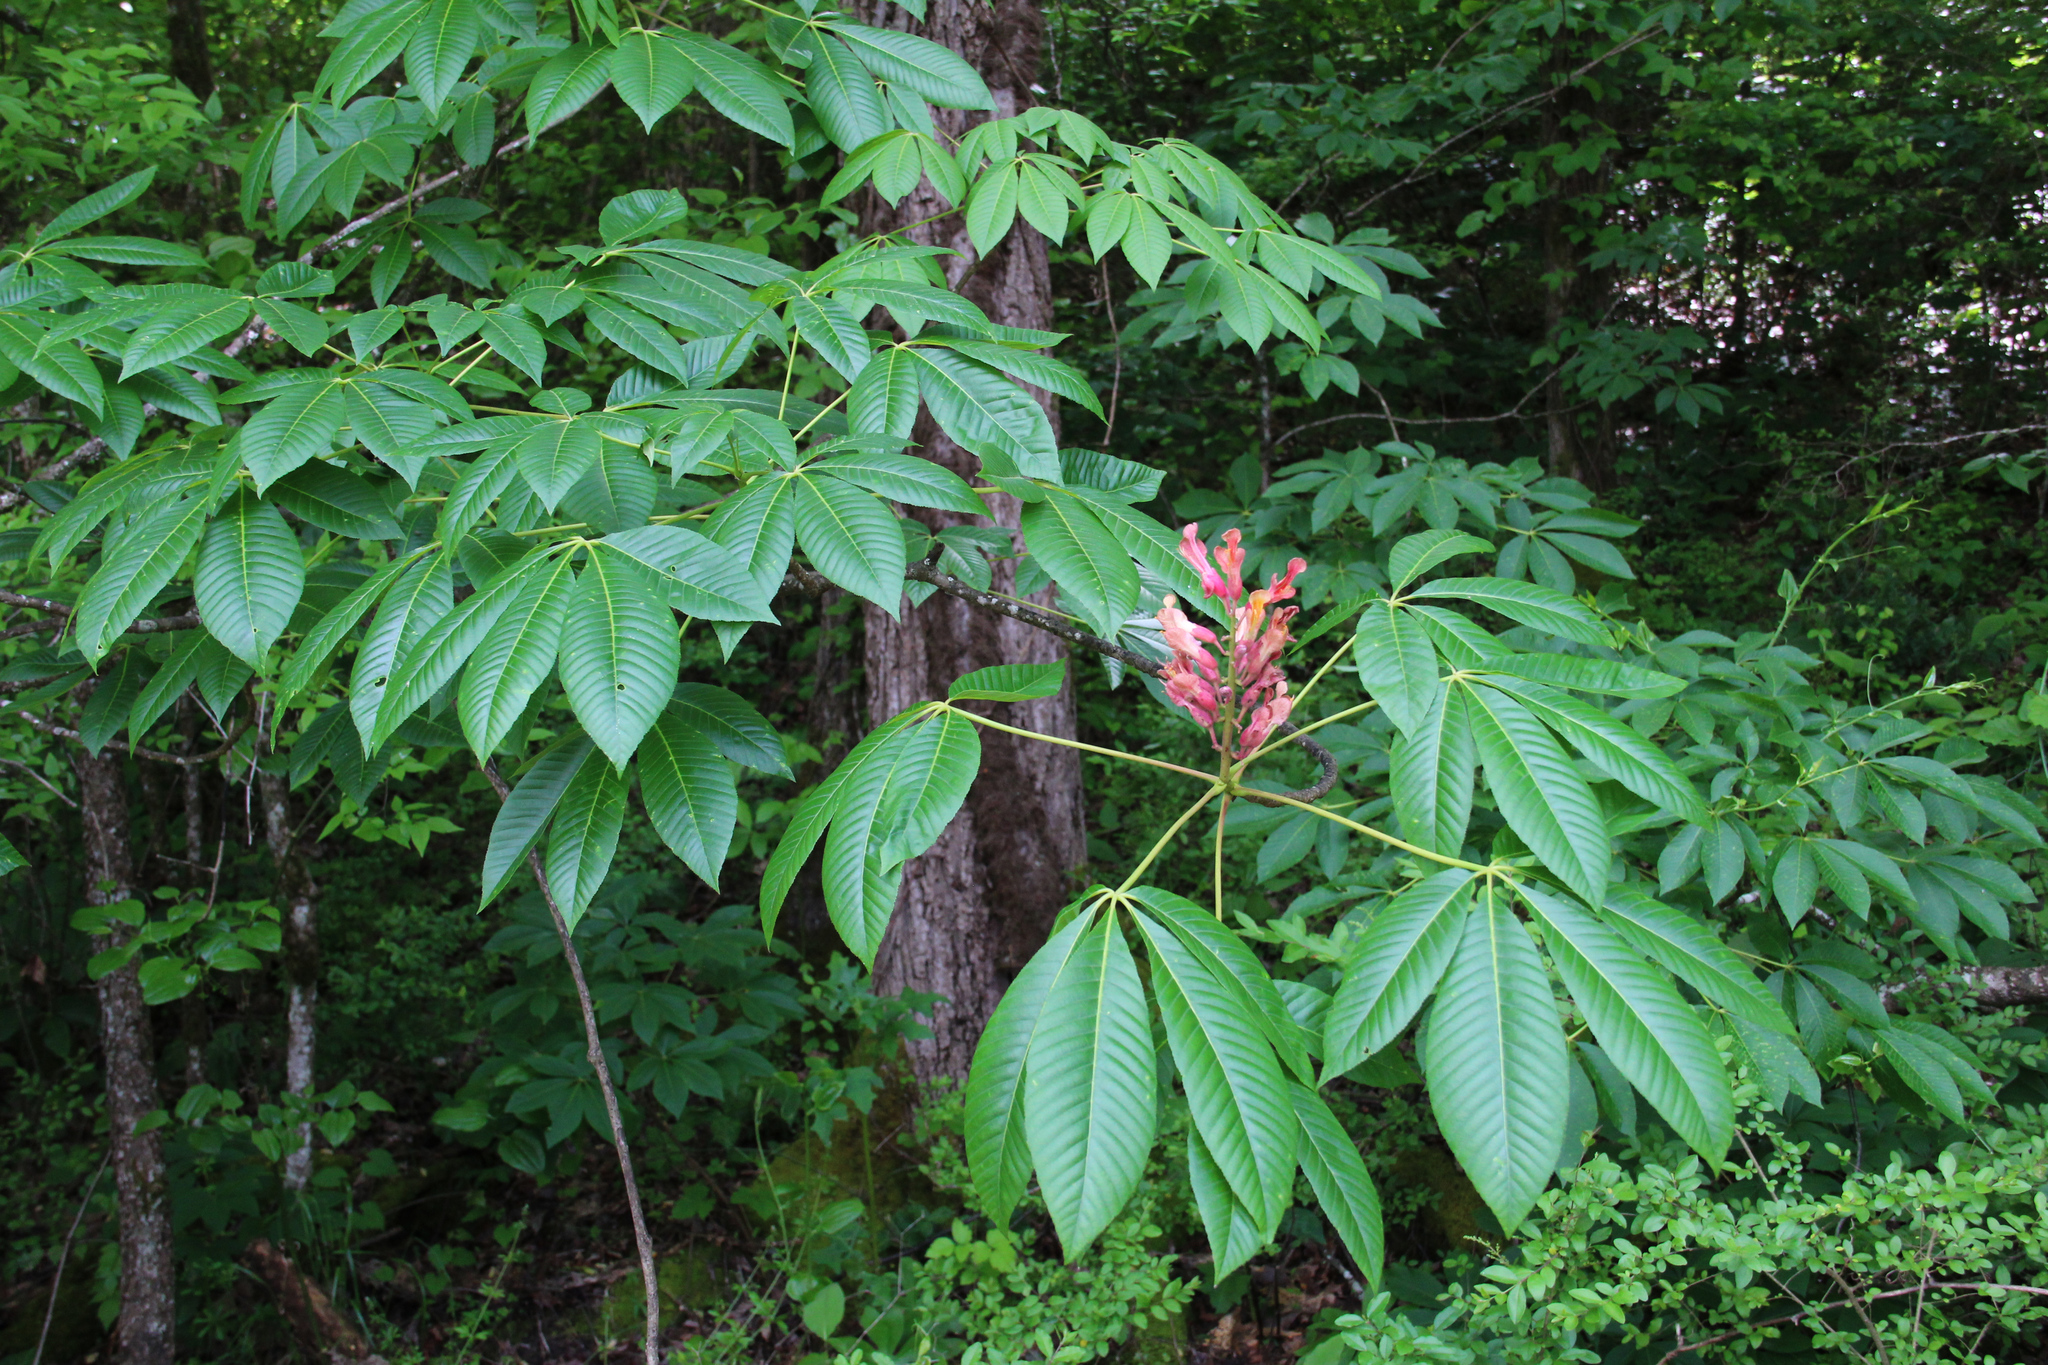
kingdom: Plantae
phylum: Tracheophyta
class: Magnoliopsida
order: Sapindales
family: Sapindaceae
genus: Aesculus
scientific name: Aesculus pavia
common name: Red buckeye
